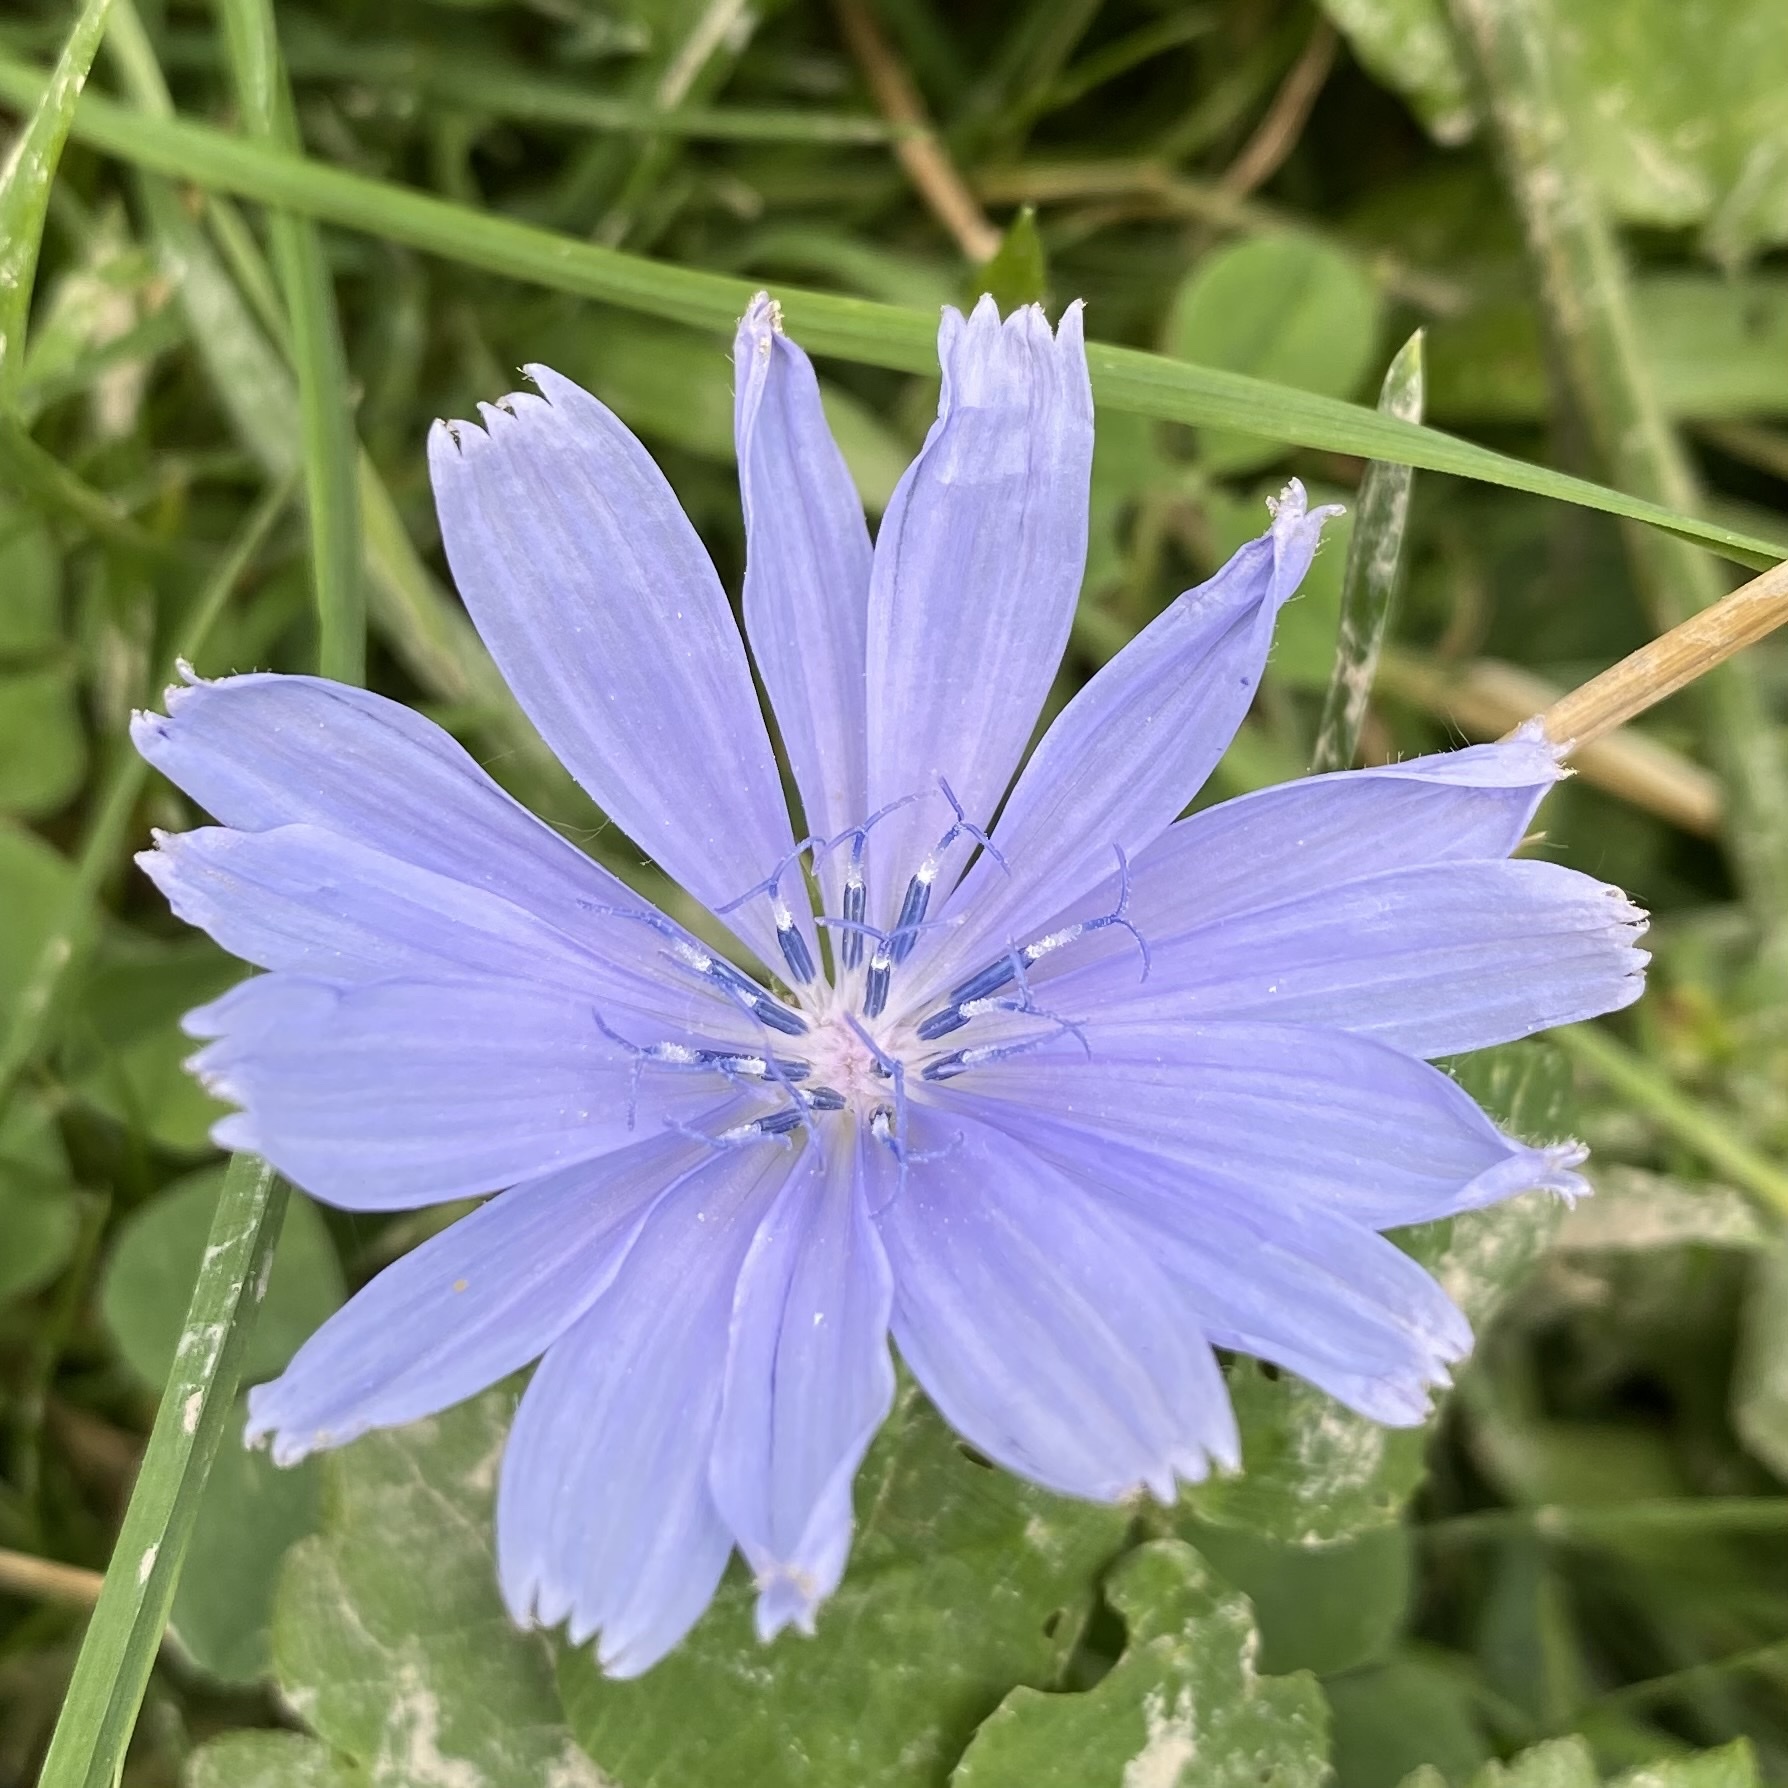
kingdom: Plantae
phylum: Tracheophyta
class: Magnoliopsida
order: Asterales
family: Asteraceae
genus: Cichorium
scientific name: Cichorium intybus
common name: Chicory
